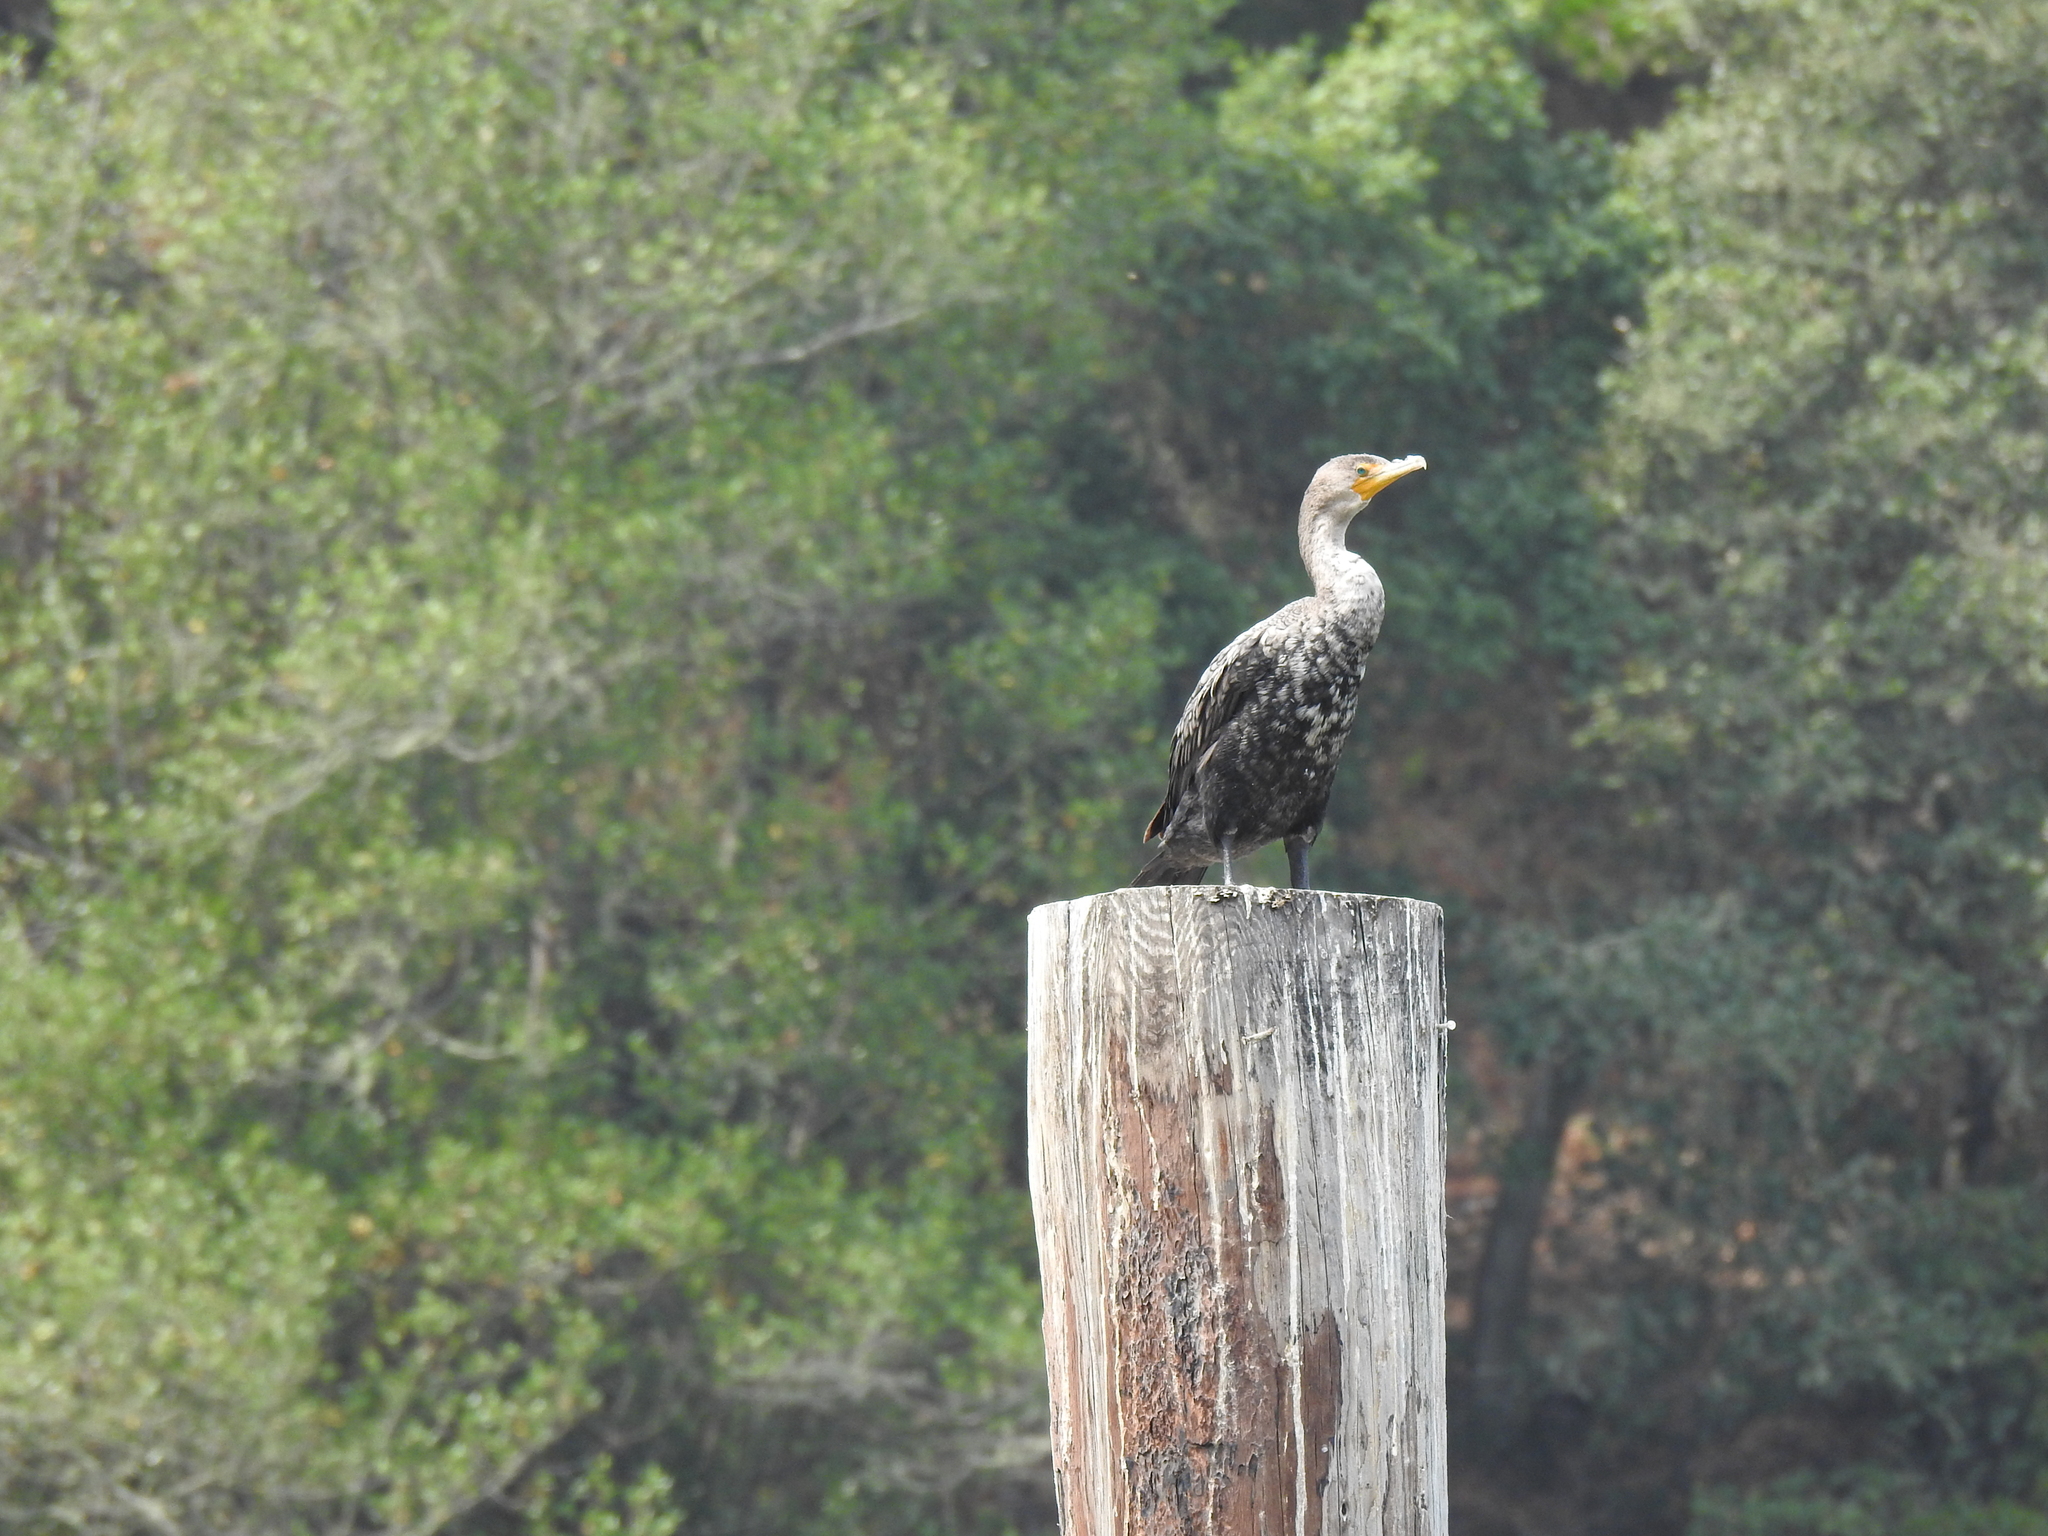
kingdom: Animalia
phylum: Chordata
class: Aves
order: Suliformes
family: Phalacrocoracidae
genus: Phalacrocorax
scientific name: Phalacrocorax auritus
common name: Double-crested cormorant
